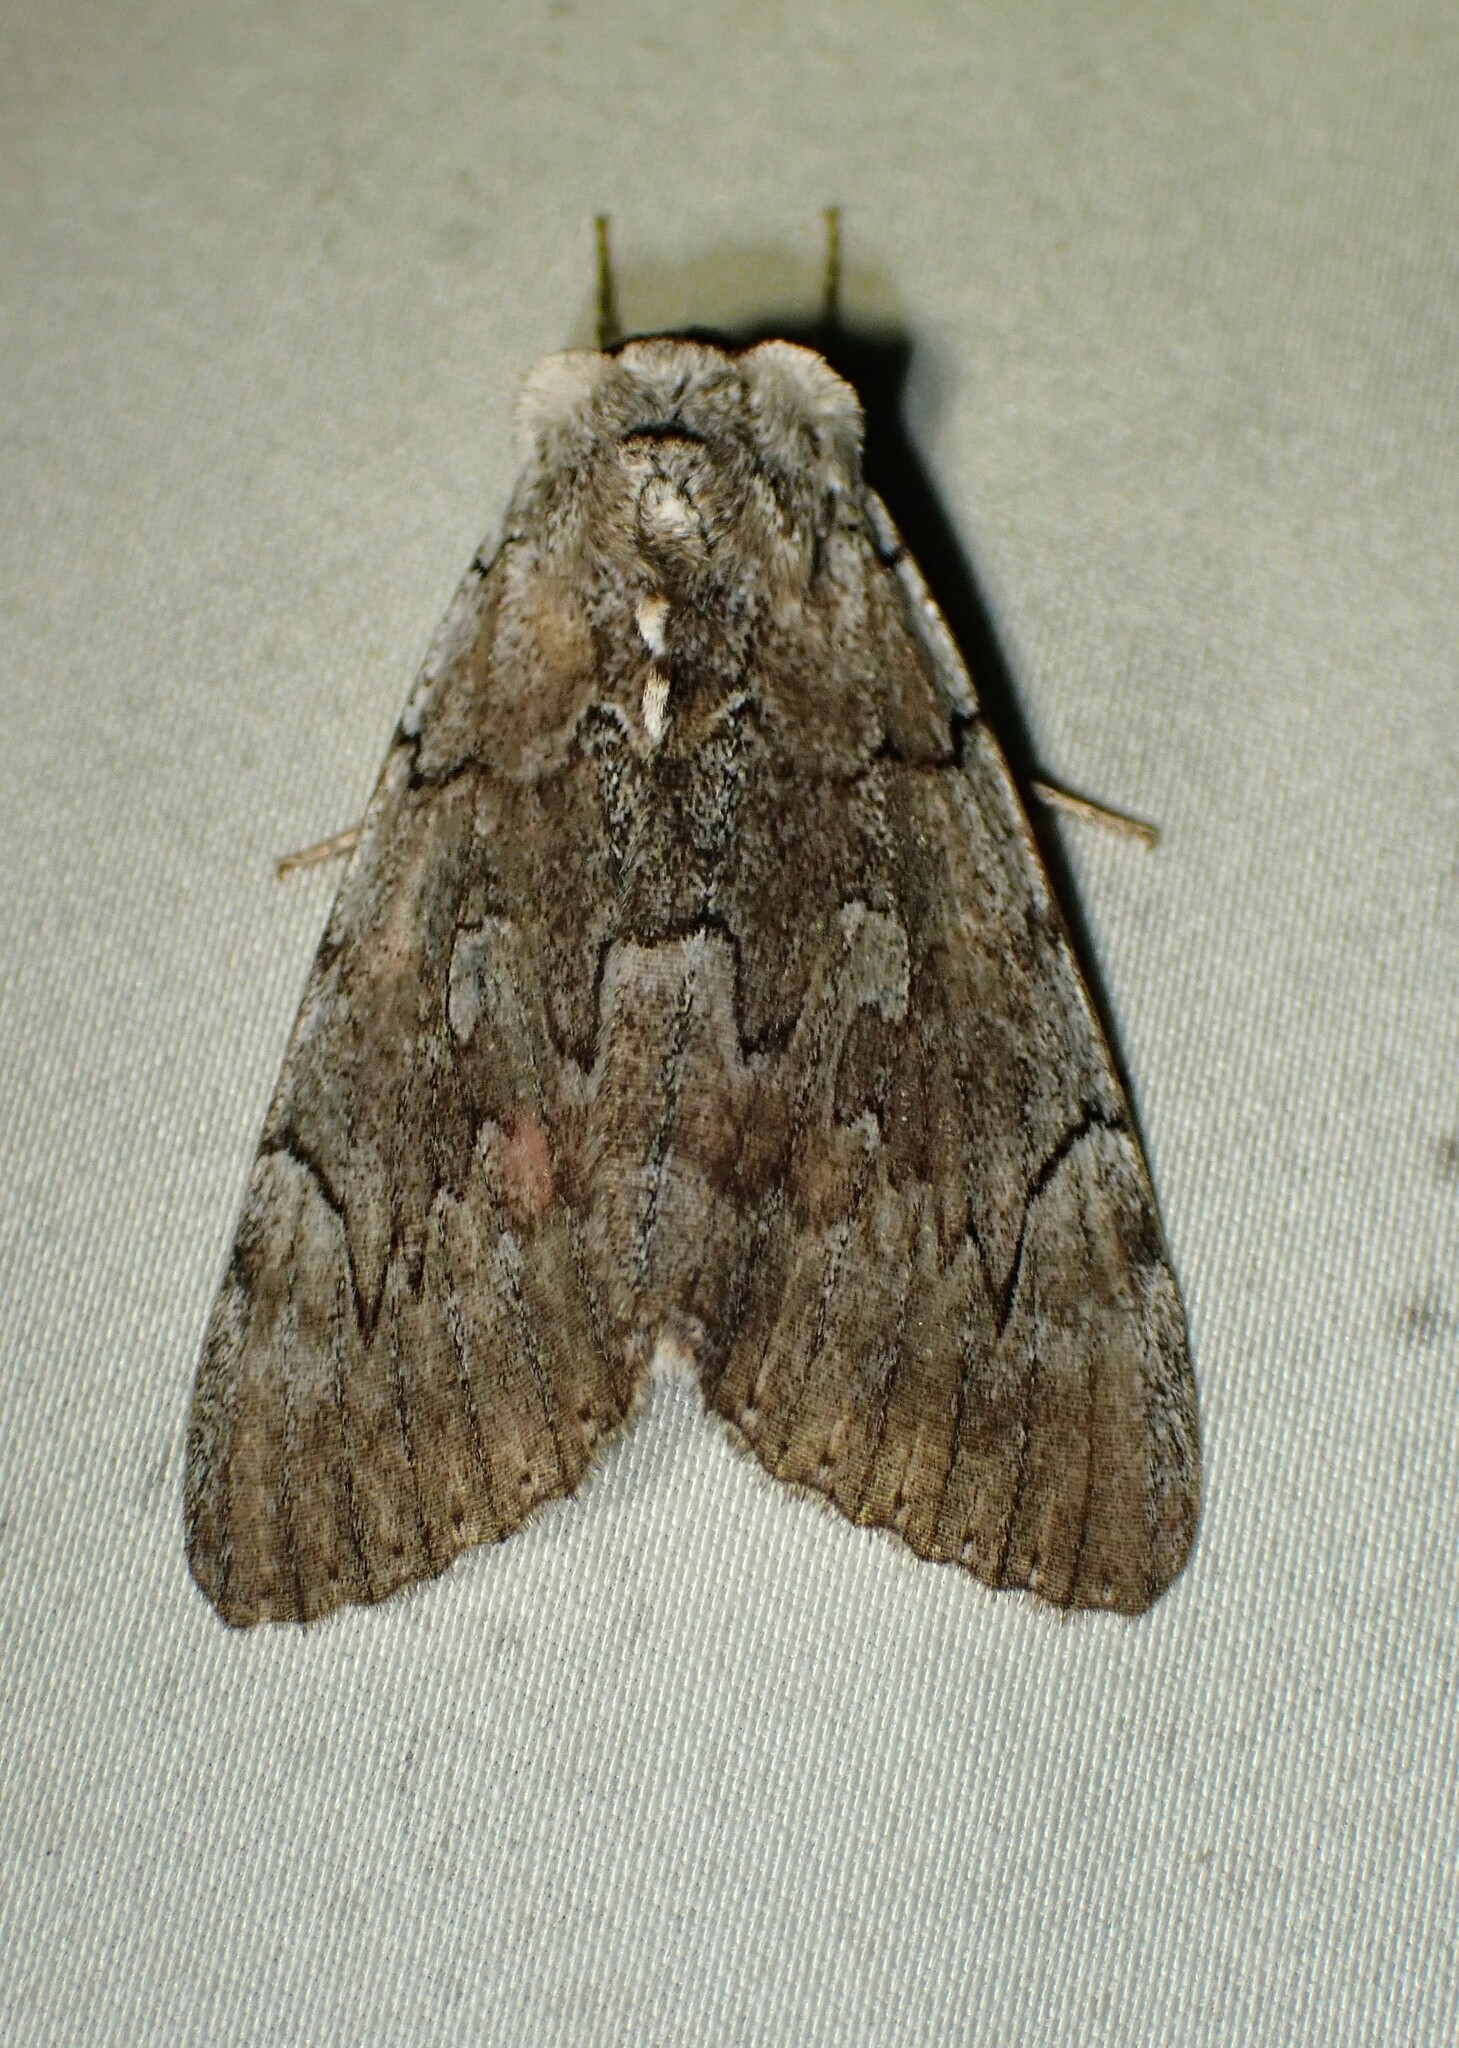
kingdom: Animalia
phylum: Arthropoda
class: Insecta
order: Lepidoptera
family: Erebidae
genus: Catocala
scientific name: Catocala concumbens
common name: Pink underwing
